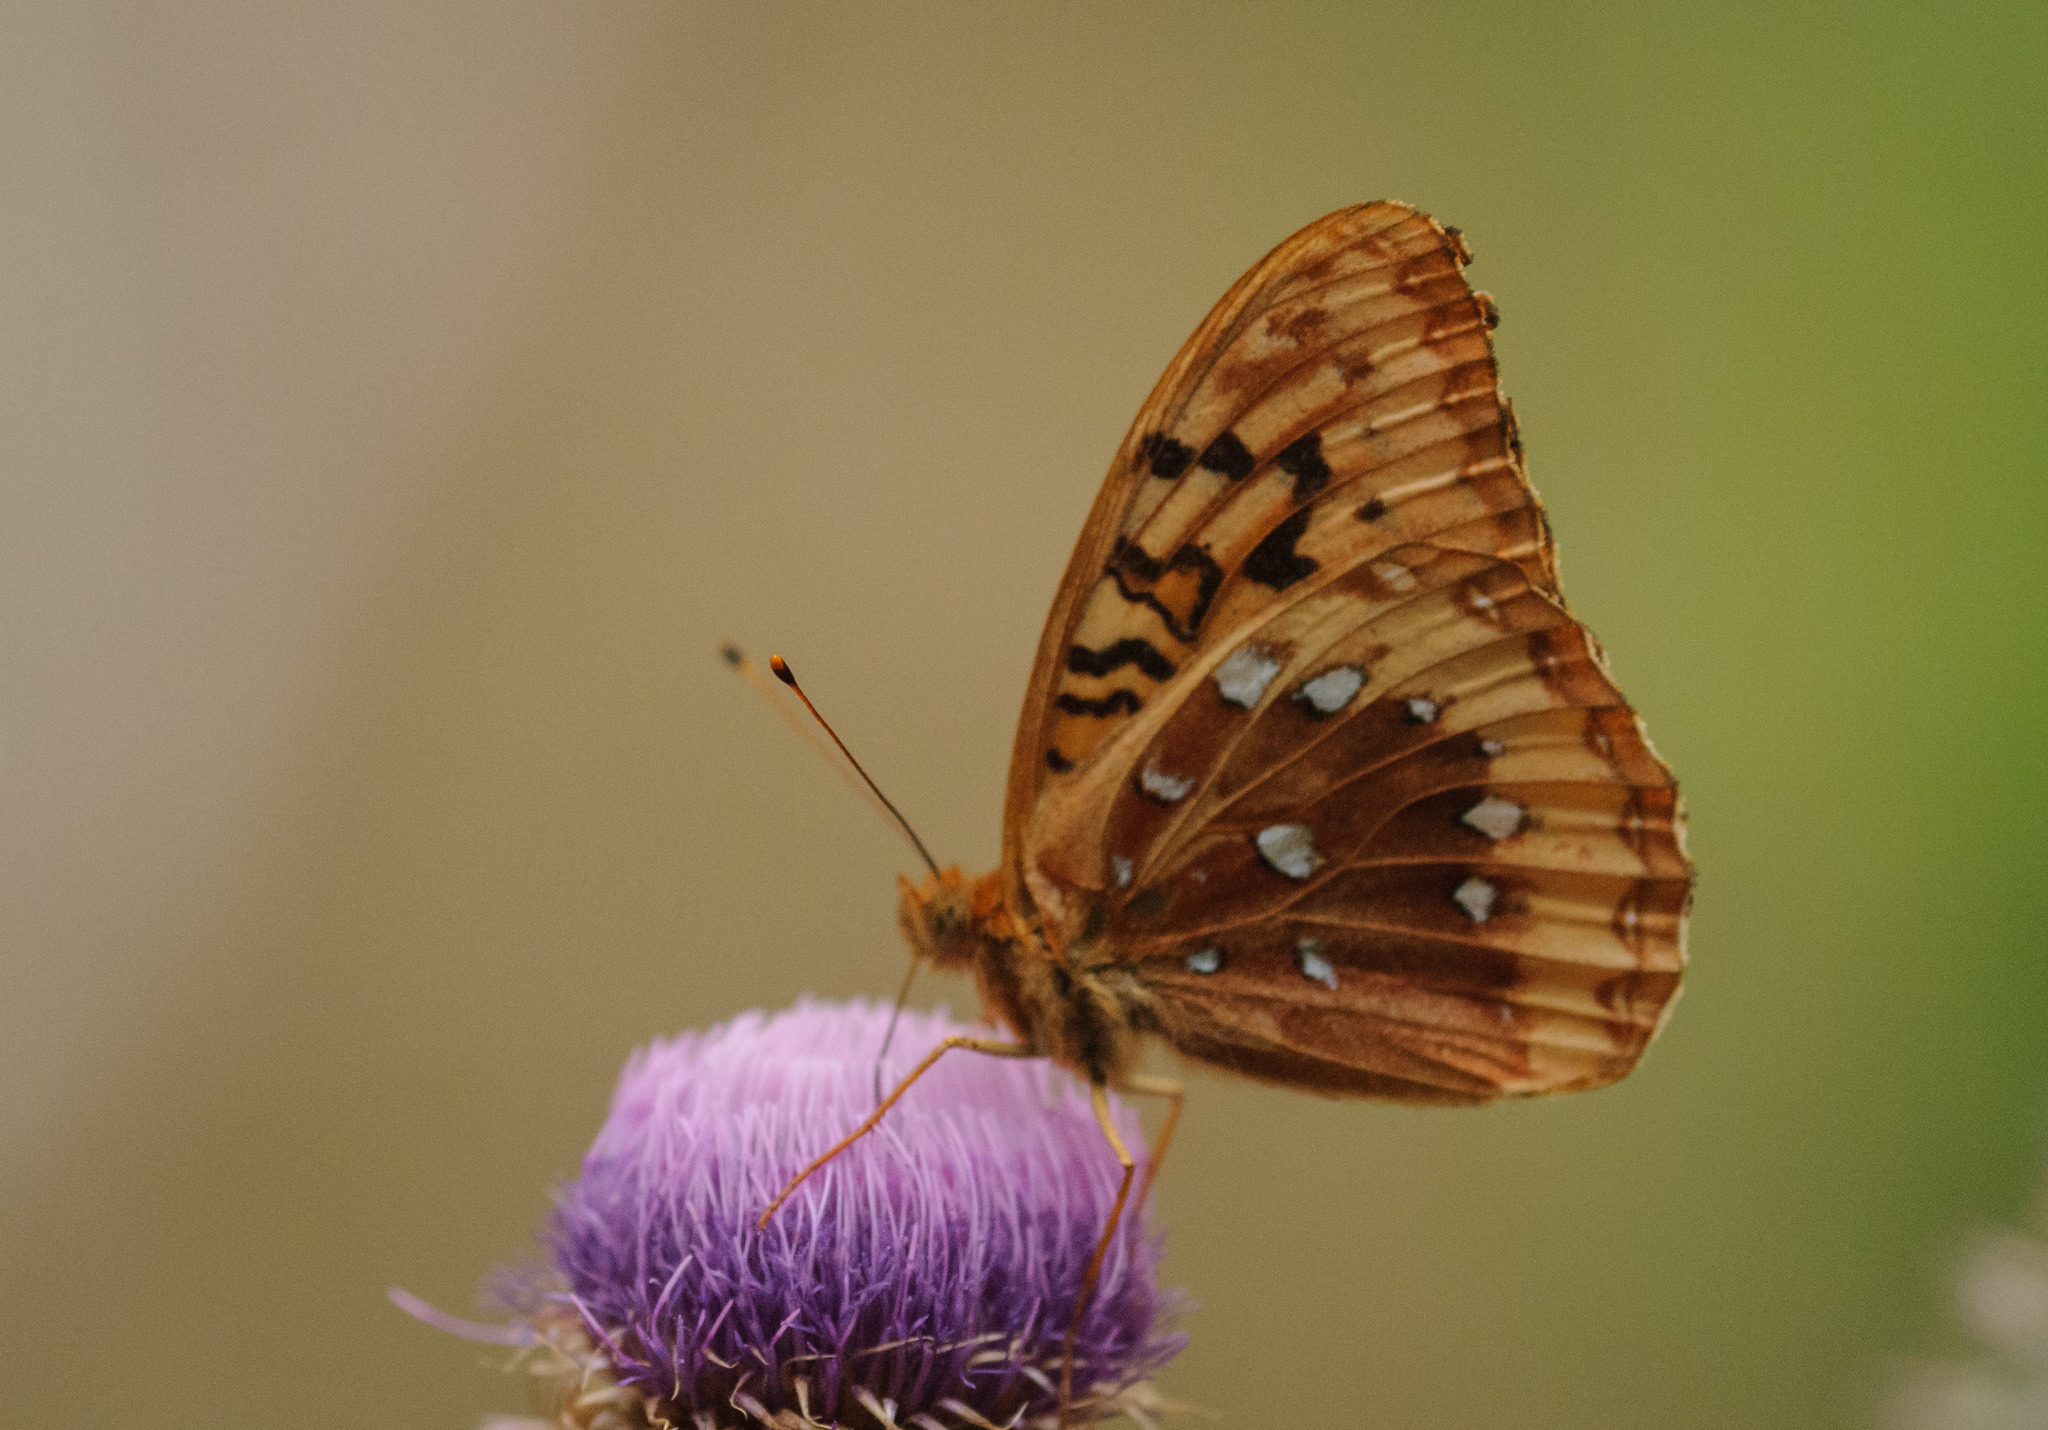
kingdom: Animalia
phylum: Arthropoda
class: Insecta
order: Lepidoptera
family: Nymphalidae
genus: Speyeria
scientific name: Speyeria cybele
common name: Great spangled fritillary
